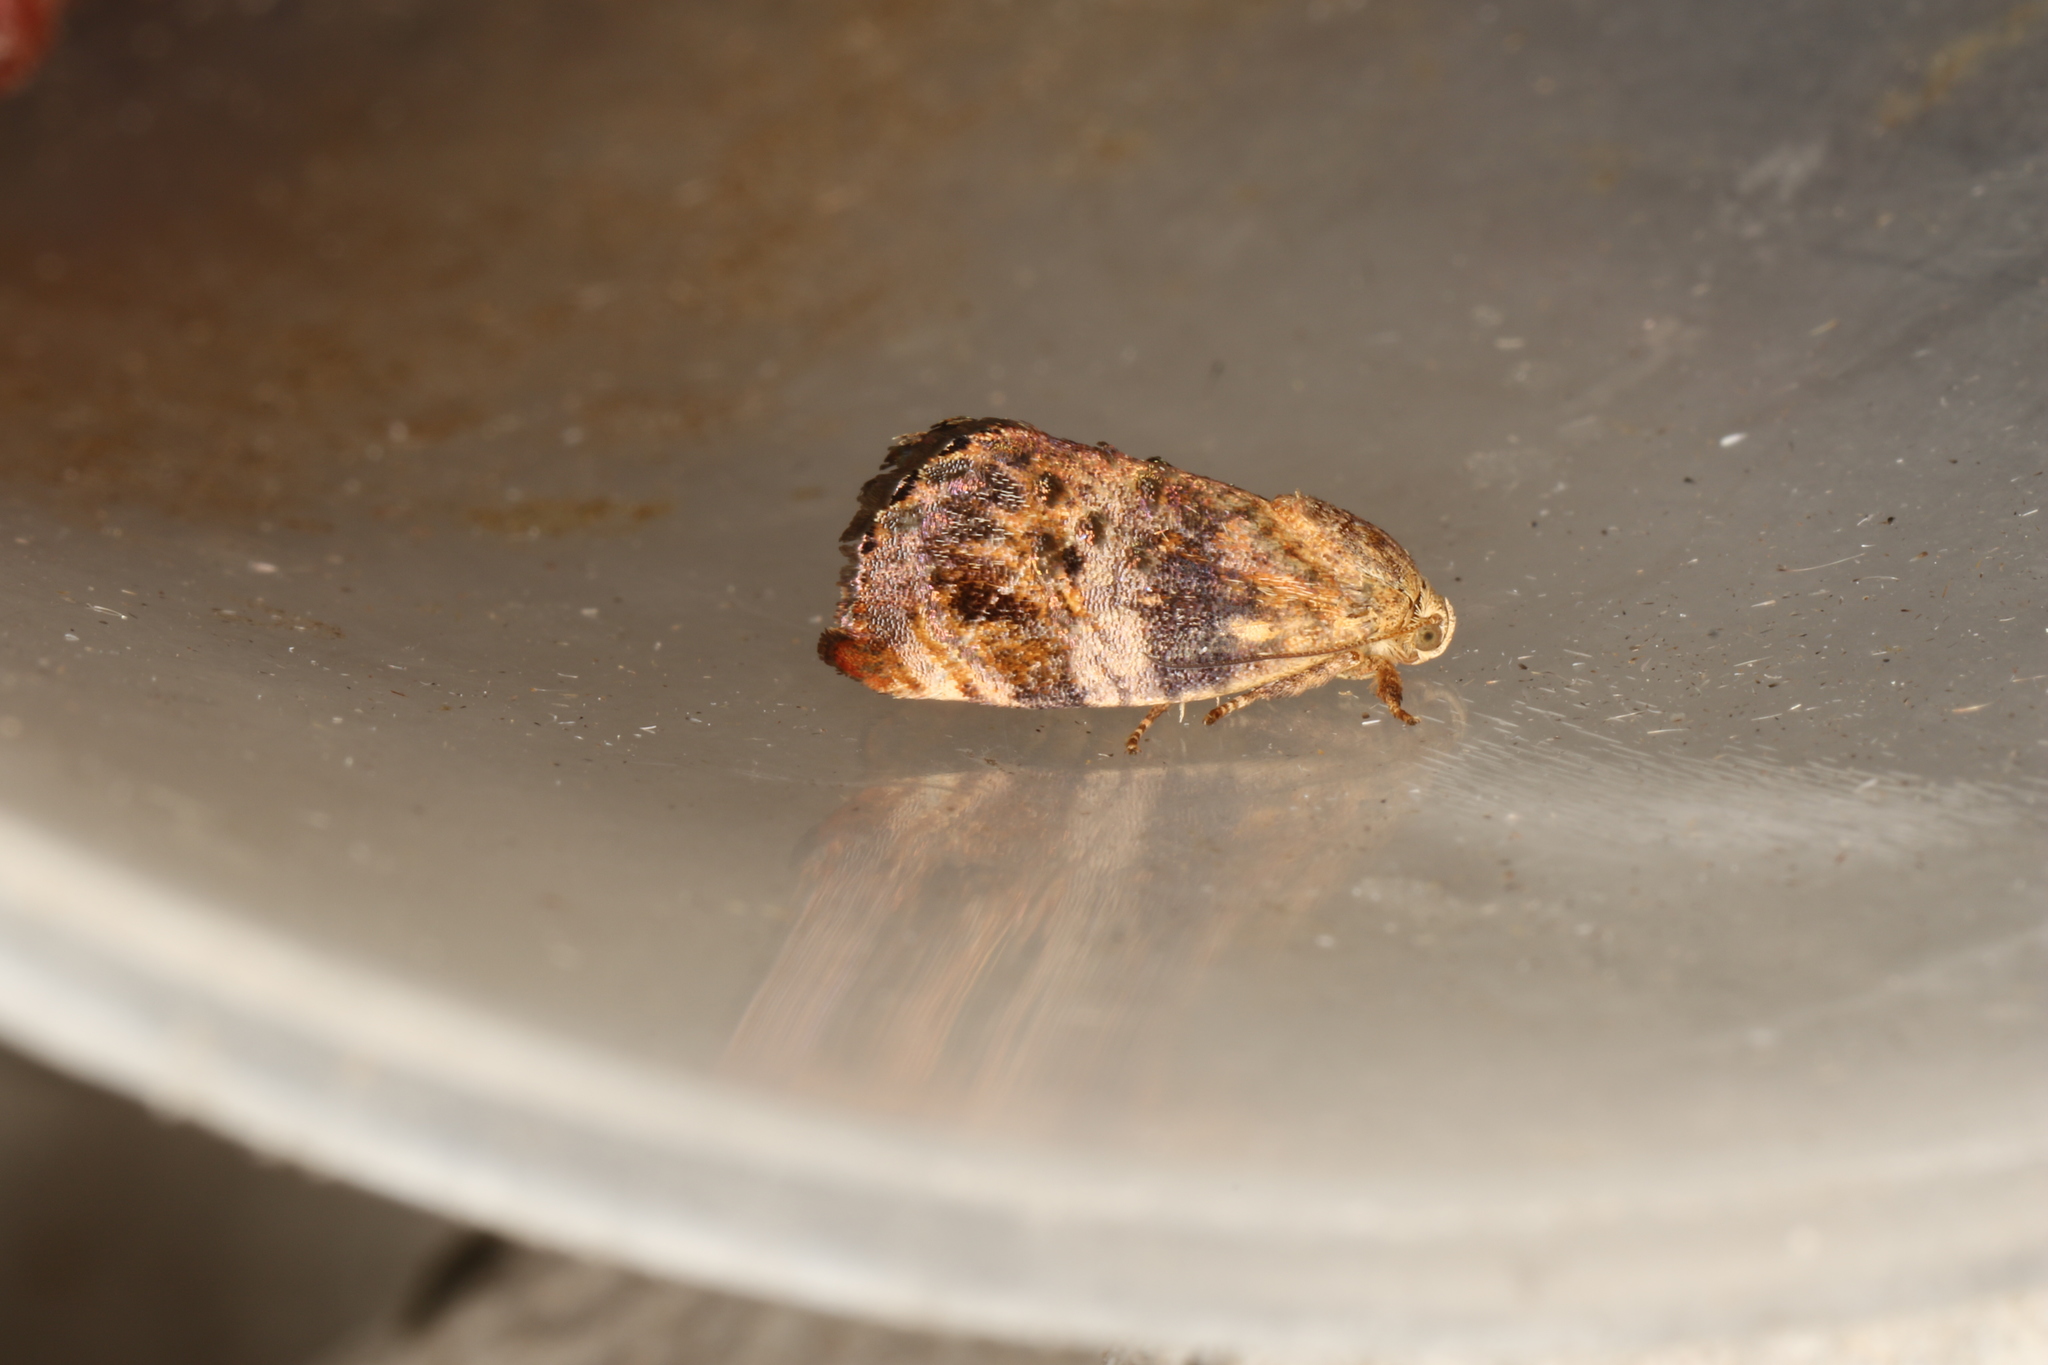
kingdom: Animalia
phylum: Arthropoda
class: Insecta
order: Lepidoptera
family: Depressariidae
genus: Peritropha
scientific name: Peritropha oligodrachma
